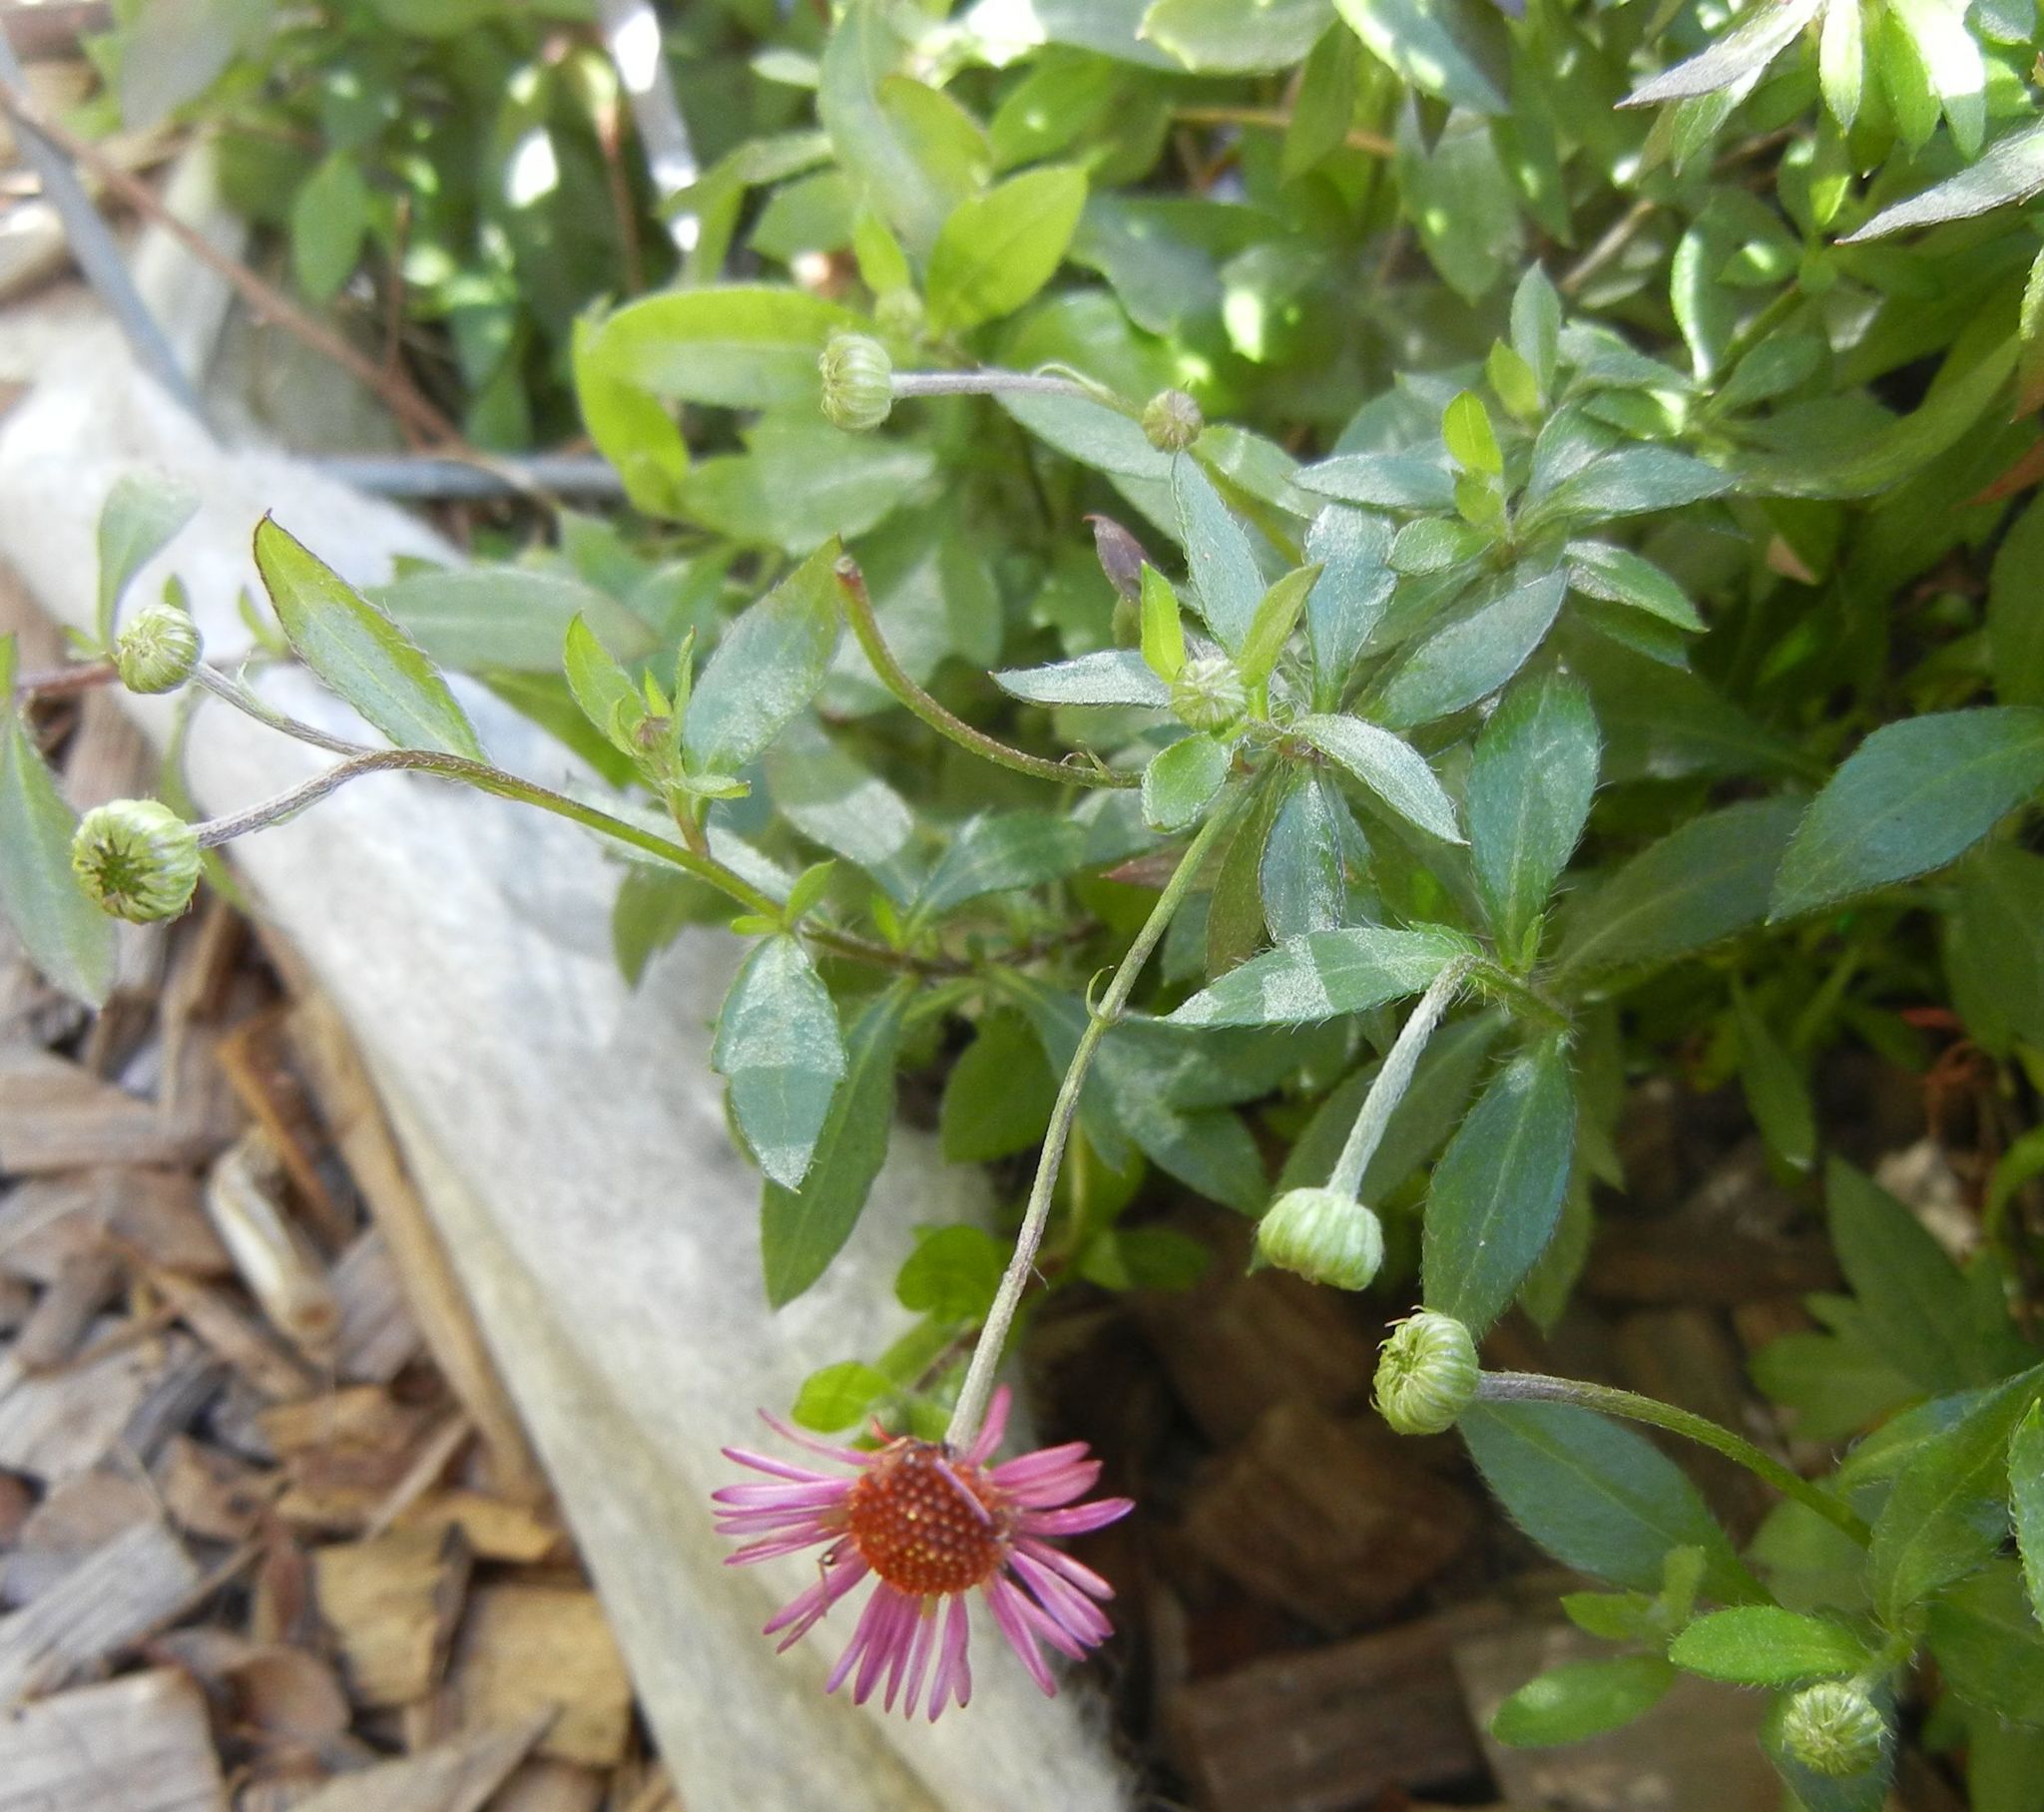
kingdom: Plantae
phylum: Tracheophyta
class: Magnoliopsida
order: Asterales
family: Asteraceae
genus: Erigeron
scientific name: Erigeron karvinskianus
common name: Mexican fleabane
